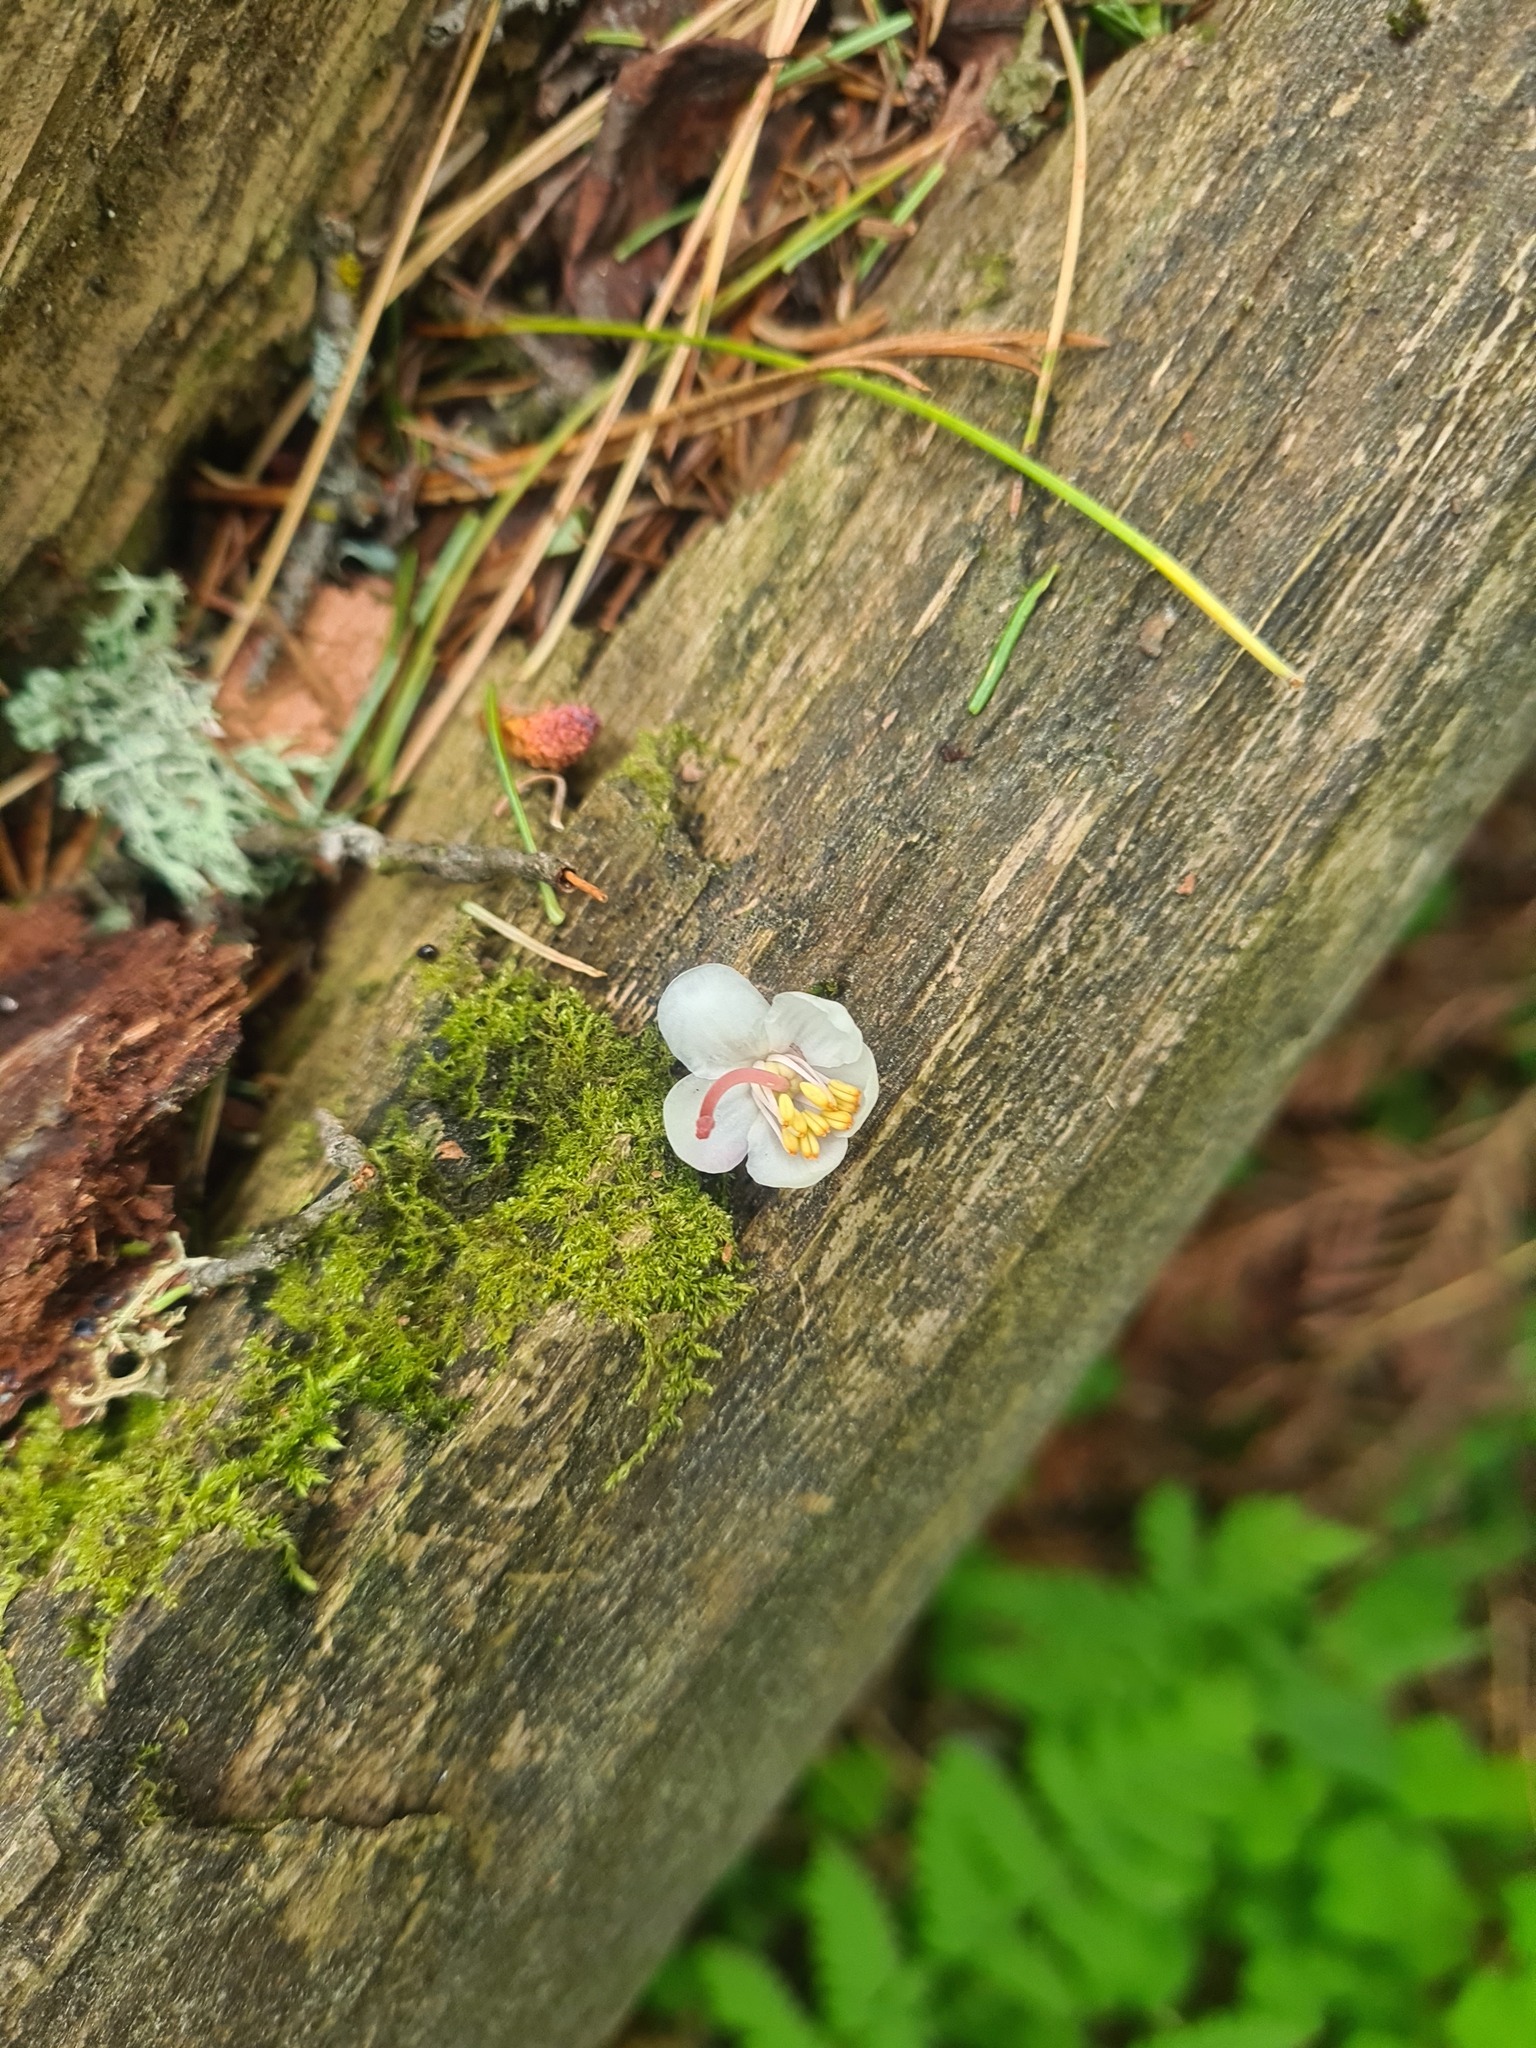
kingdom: Plantae
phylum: Tracheophyta
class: Magnoliopsida
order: Ericales
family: Ericaceae
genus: Pyrola
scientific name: Pyrola rotundifolia
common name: Round-leaved wintergreen
